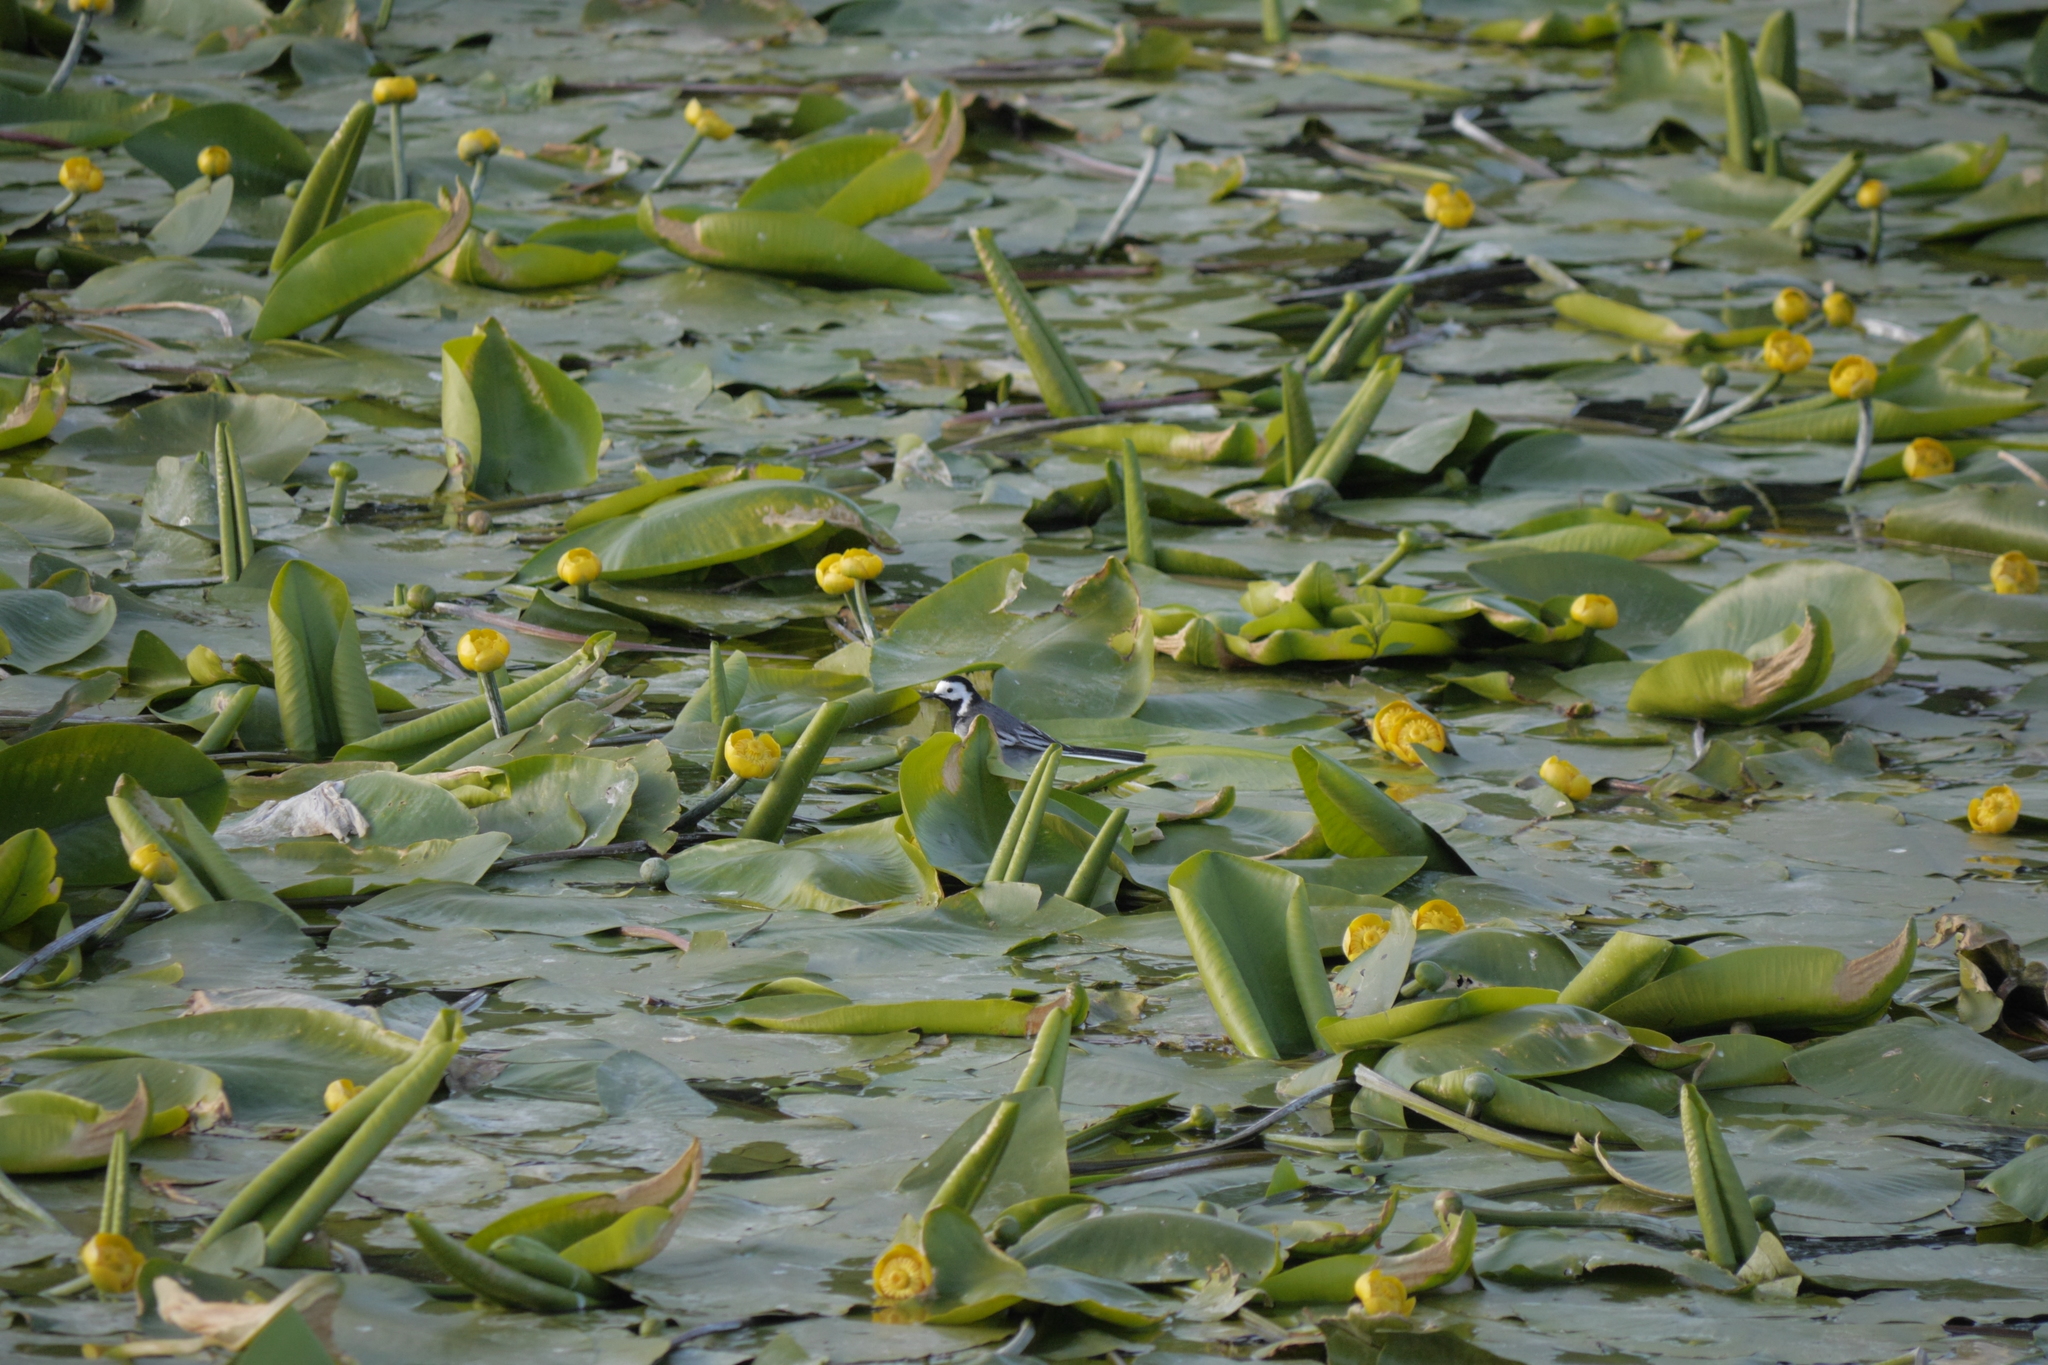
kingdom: Plantae
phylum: Tracheophyta
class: Magnoliopsida
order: Nymphaeales
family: Nymphaeaceae
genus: Nuphar
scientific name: Nuphar lutea
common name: Yellow water-lily
